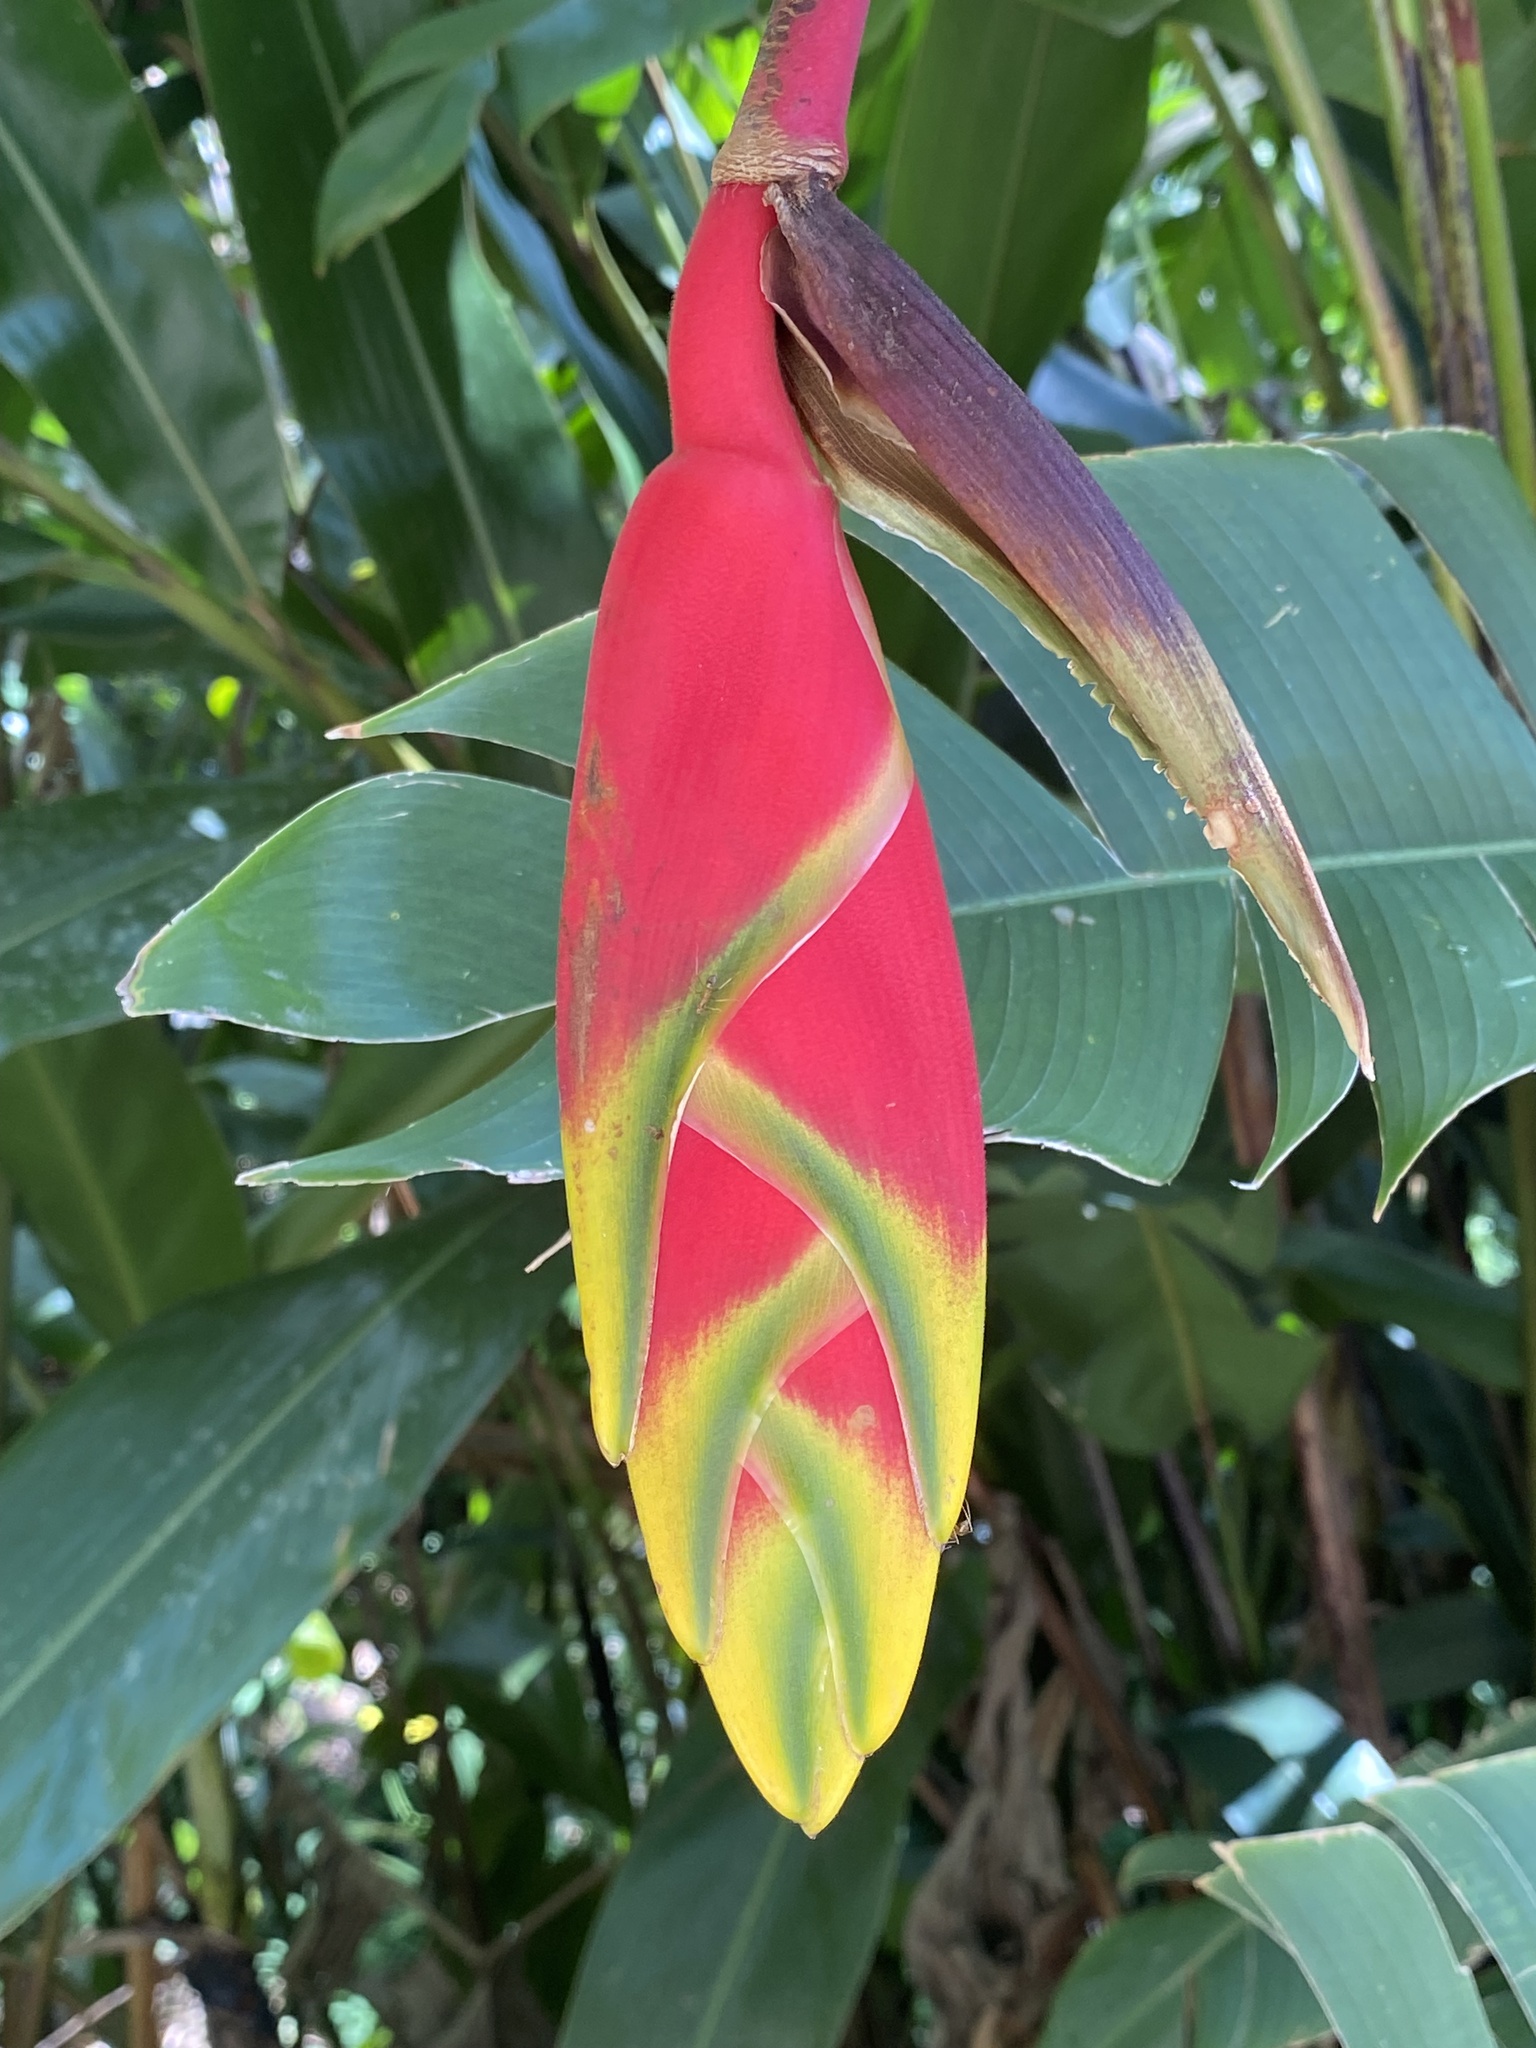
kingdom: Plantae
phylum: Tracheophyta
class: Liliopsida
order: Zingiberales
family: Heliconiaceae
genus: Heliconia
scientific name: Heliconia rostrata
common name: False bird of paradise
